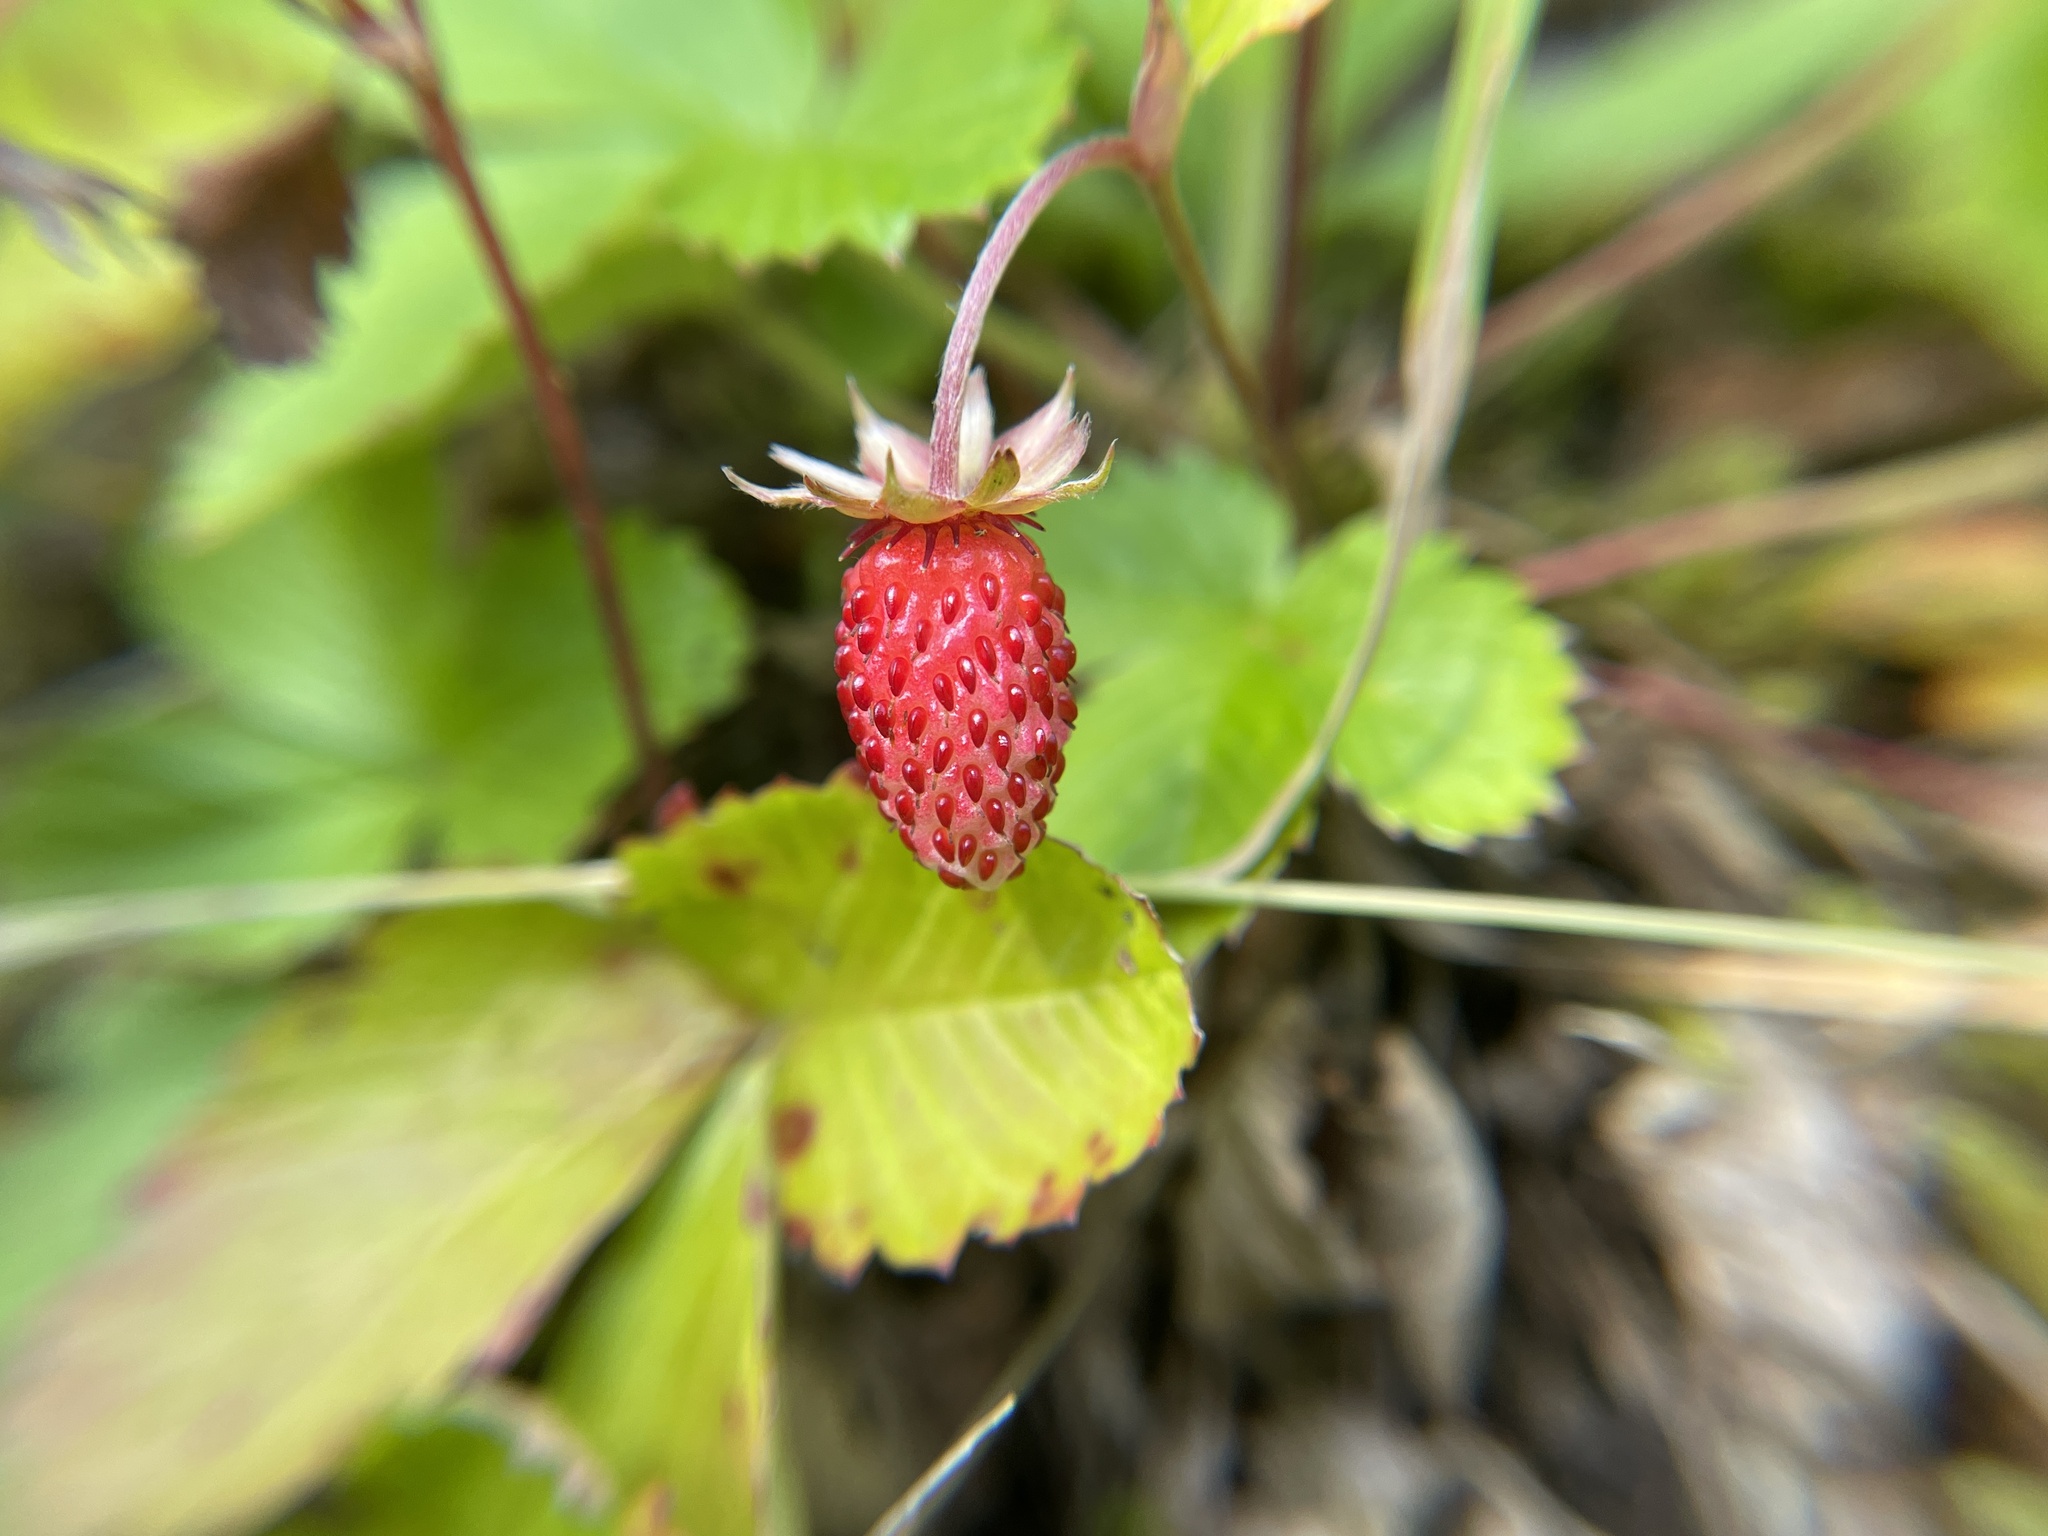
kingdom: Plantae
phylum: Tracheophyta
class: Magnoliopsida
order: Rosales
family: Rosaceae
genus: Fragaria
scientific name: Fragaria vesca
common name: Wild strawberry
